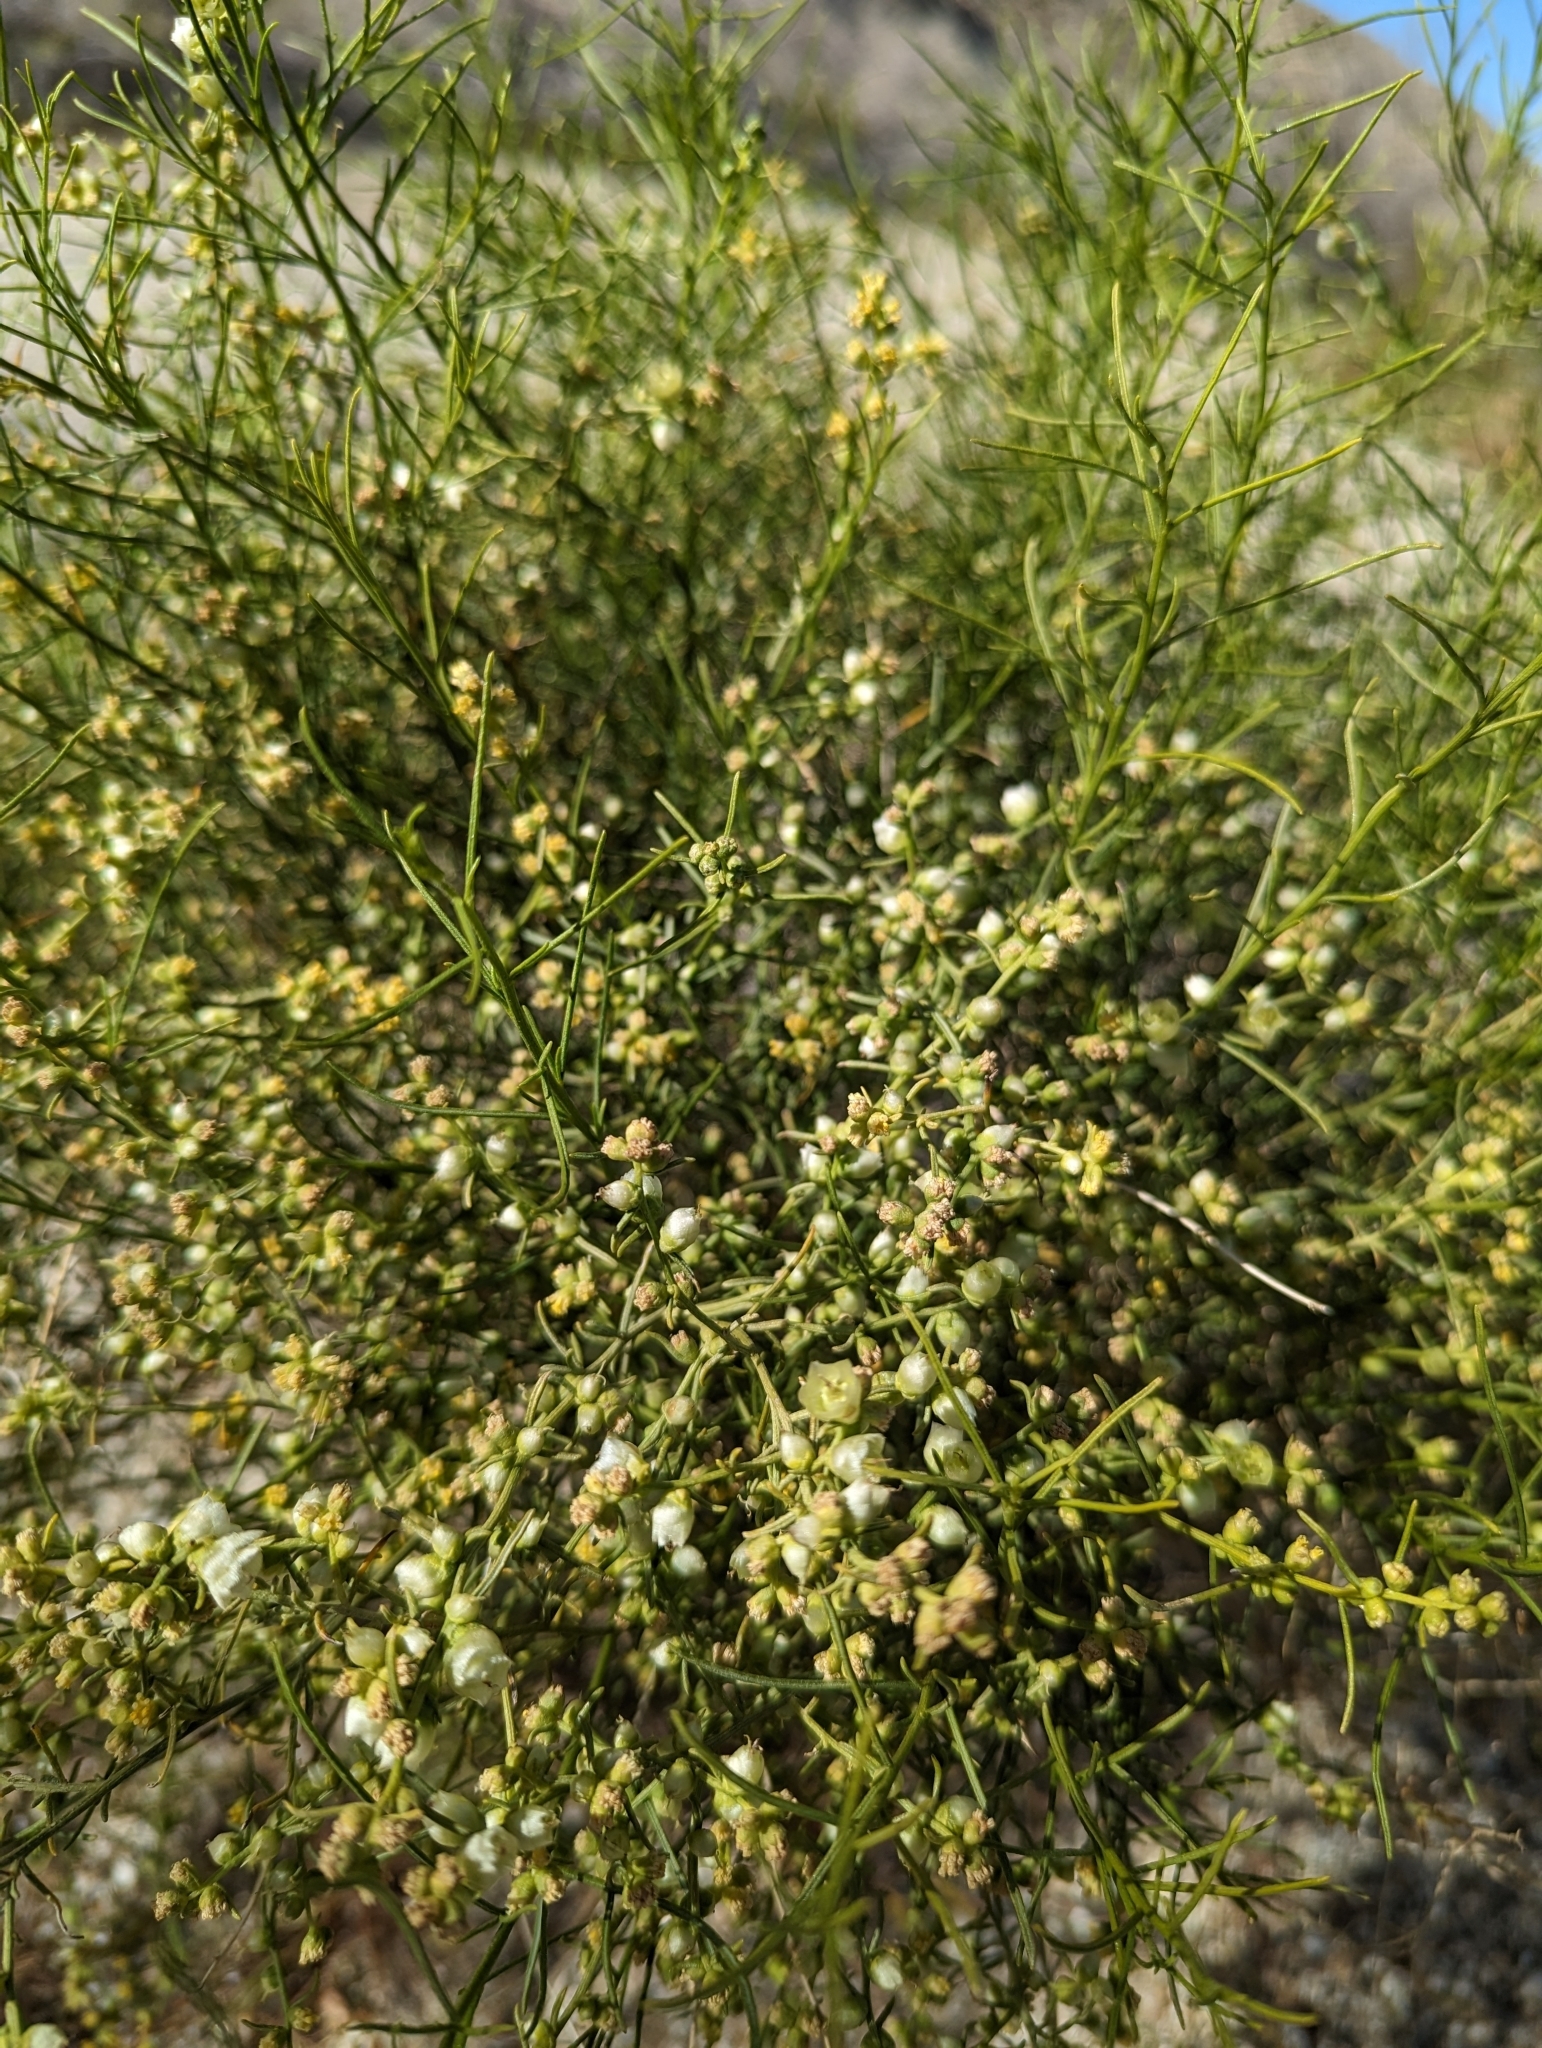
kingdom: Plantae
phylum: Tracheophyta
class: Magnoliopsida
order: Asterales
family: Asteraceae
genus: Ambrosia
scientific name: Ambrosia salsola
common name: Burrobrush
